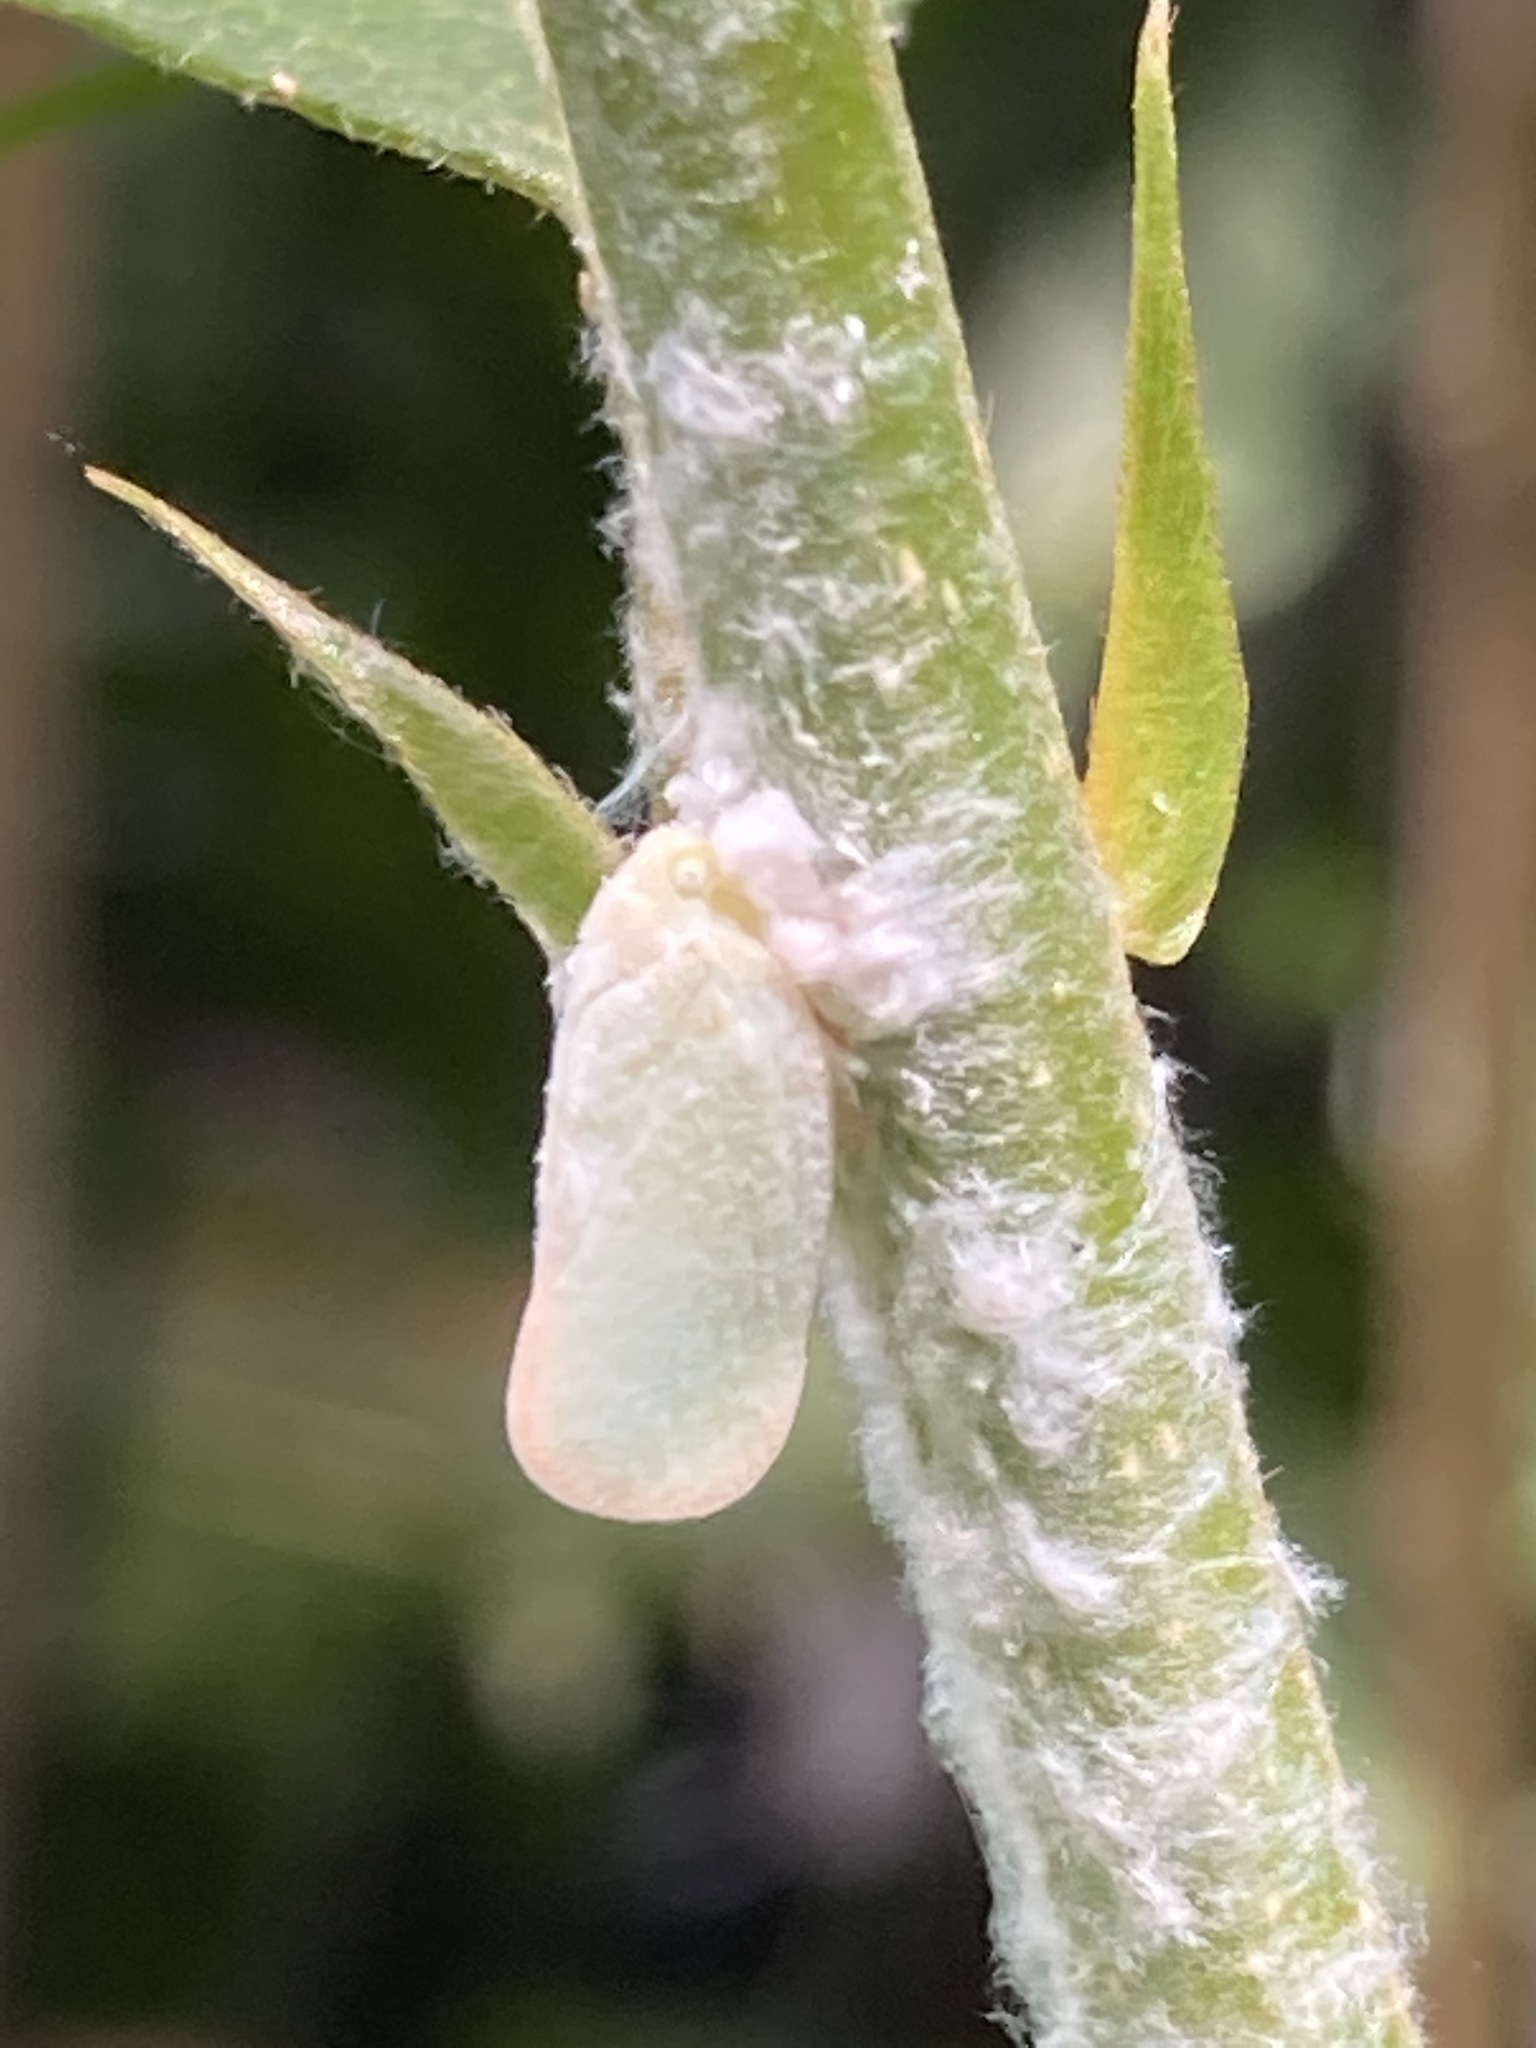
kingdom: Animalia
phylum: Arthropoda
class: Insecta
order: Hemiptera
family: Flatidae
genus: Ormenoides
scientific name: Ormenoides venusta
